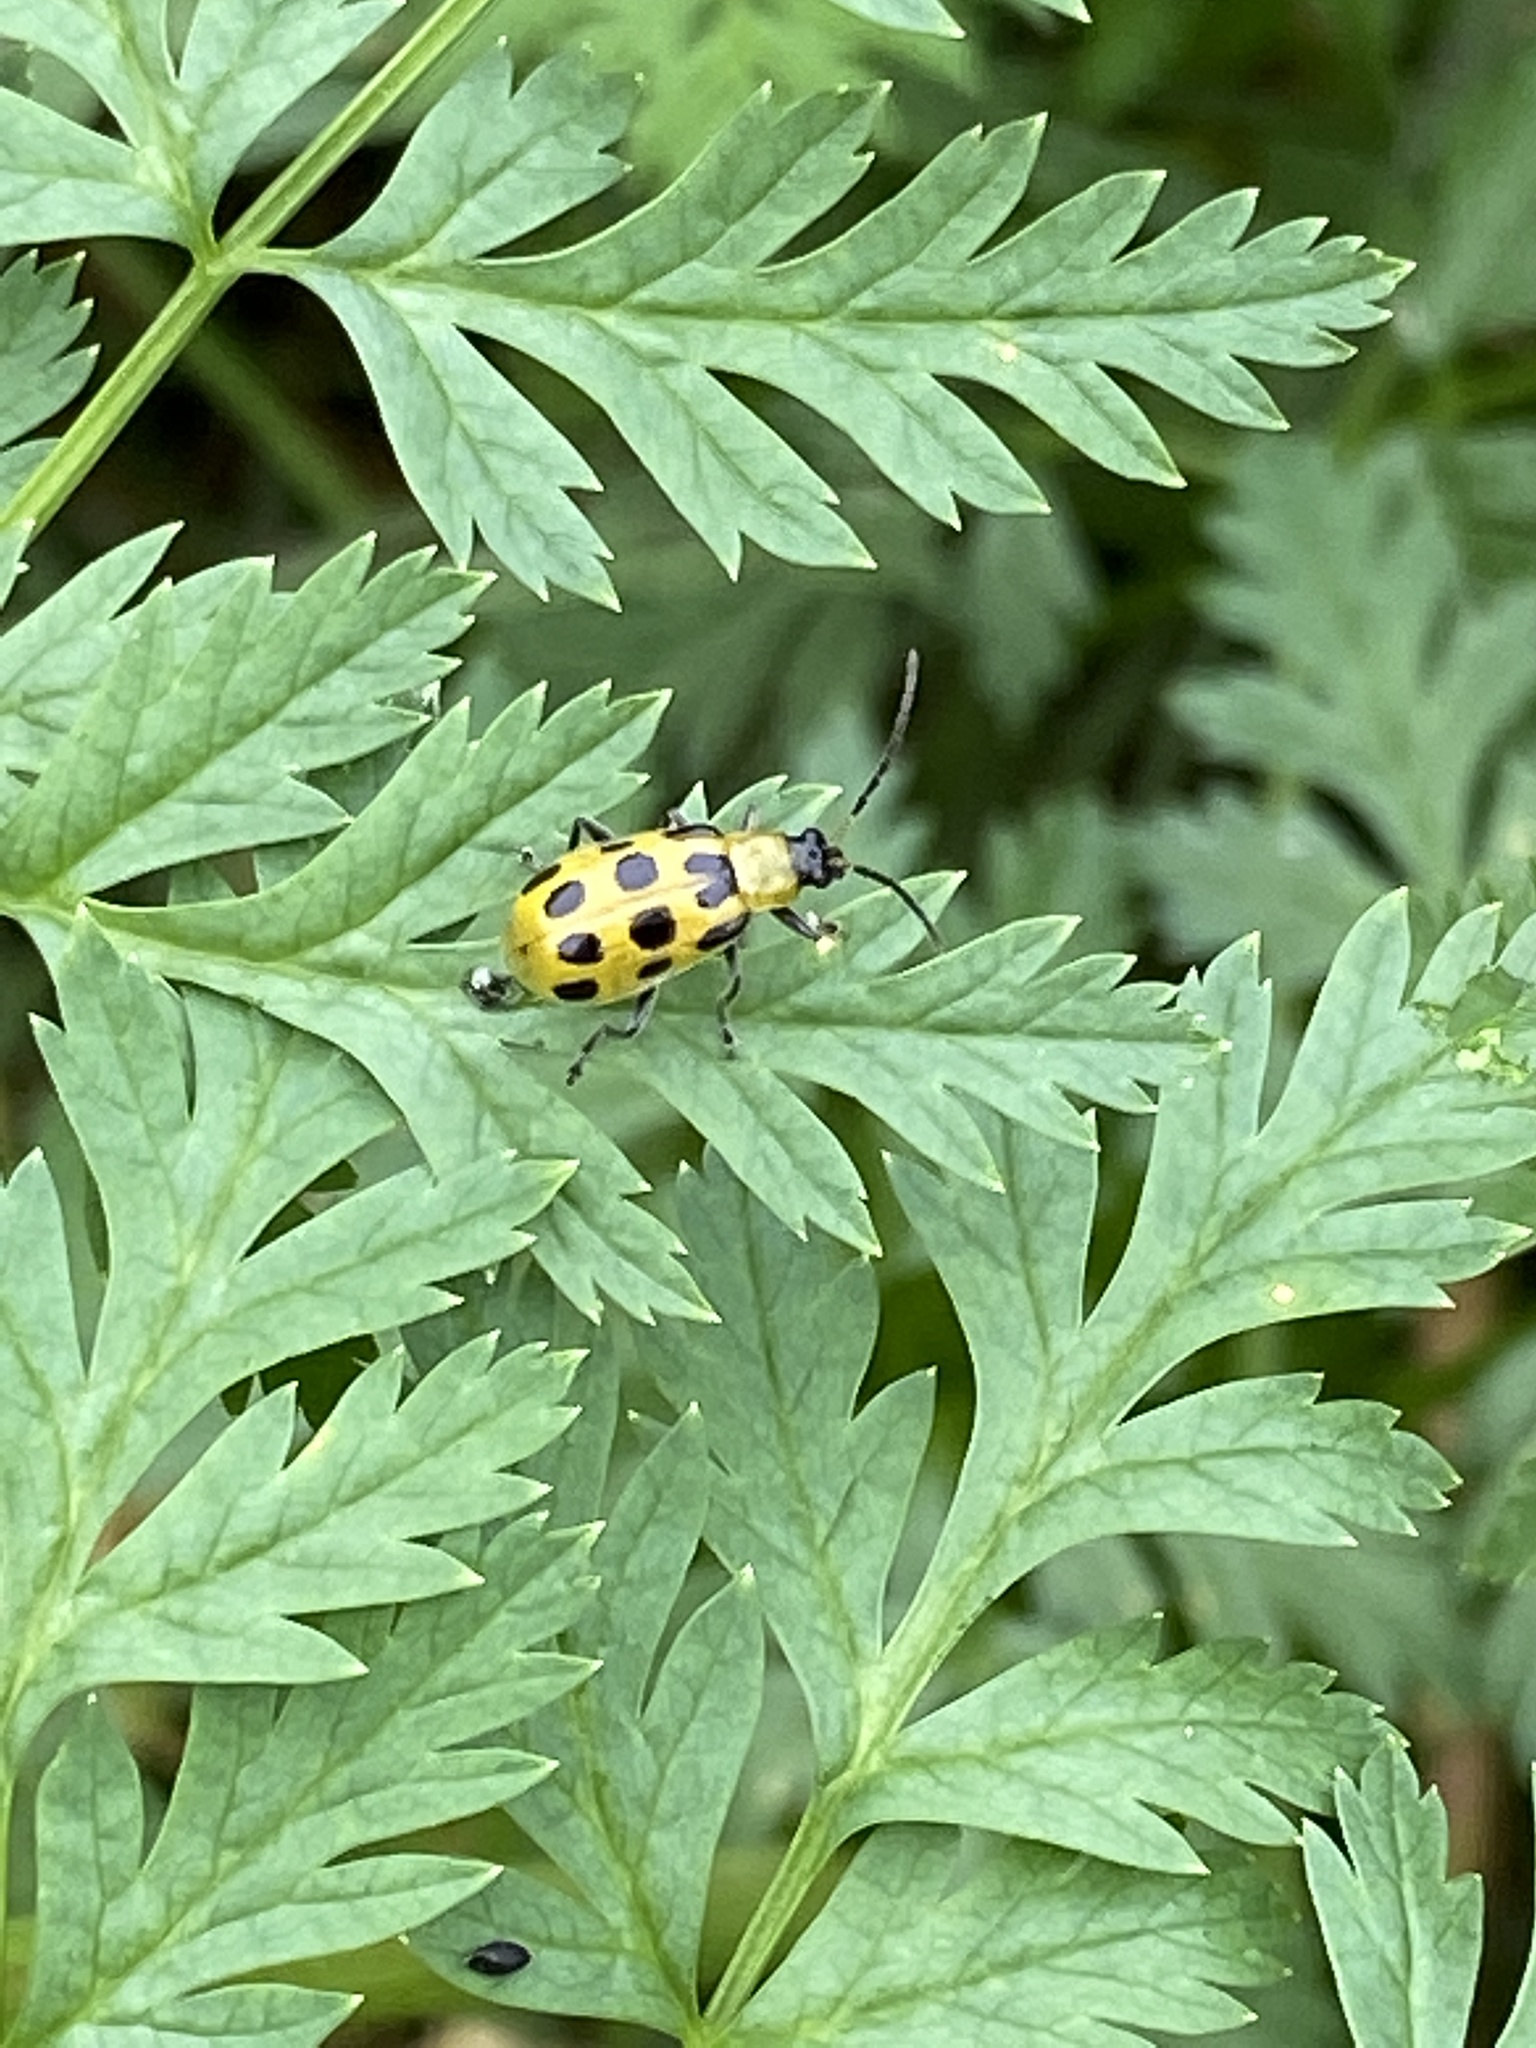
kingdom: Animalia
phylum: Arthropoda
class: Insecta
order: Coleoptera
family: Chrysomelidae
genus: Diabrotica
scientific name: Diabrotica undecimpunctata
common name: Spotted cucumber beetle
